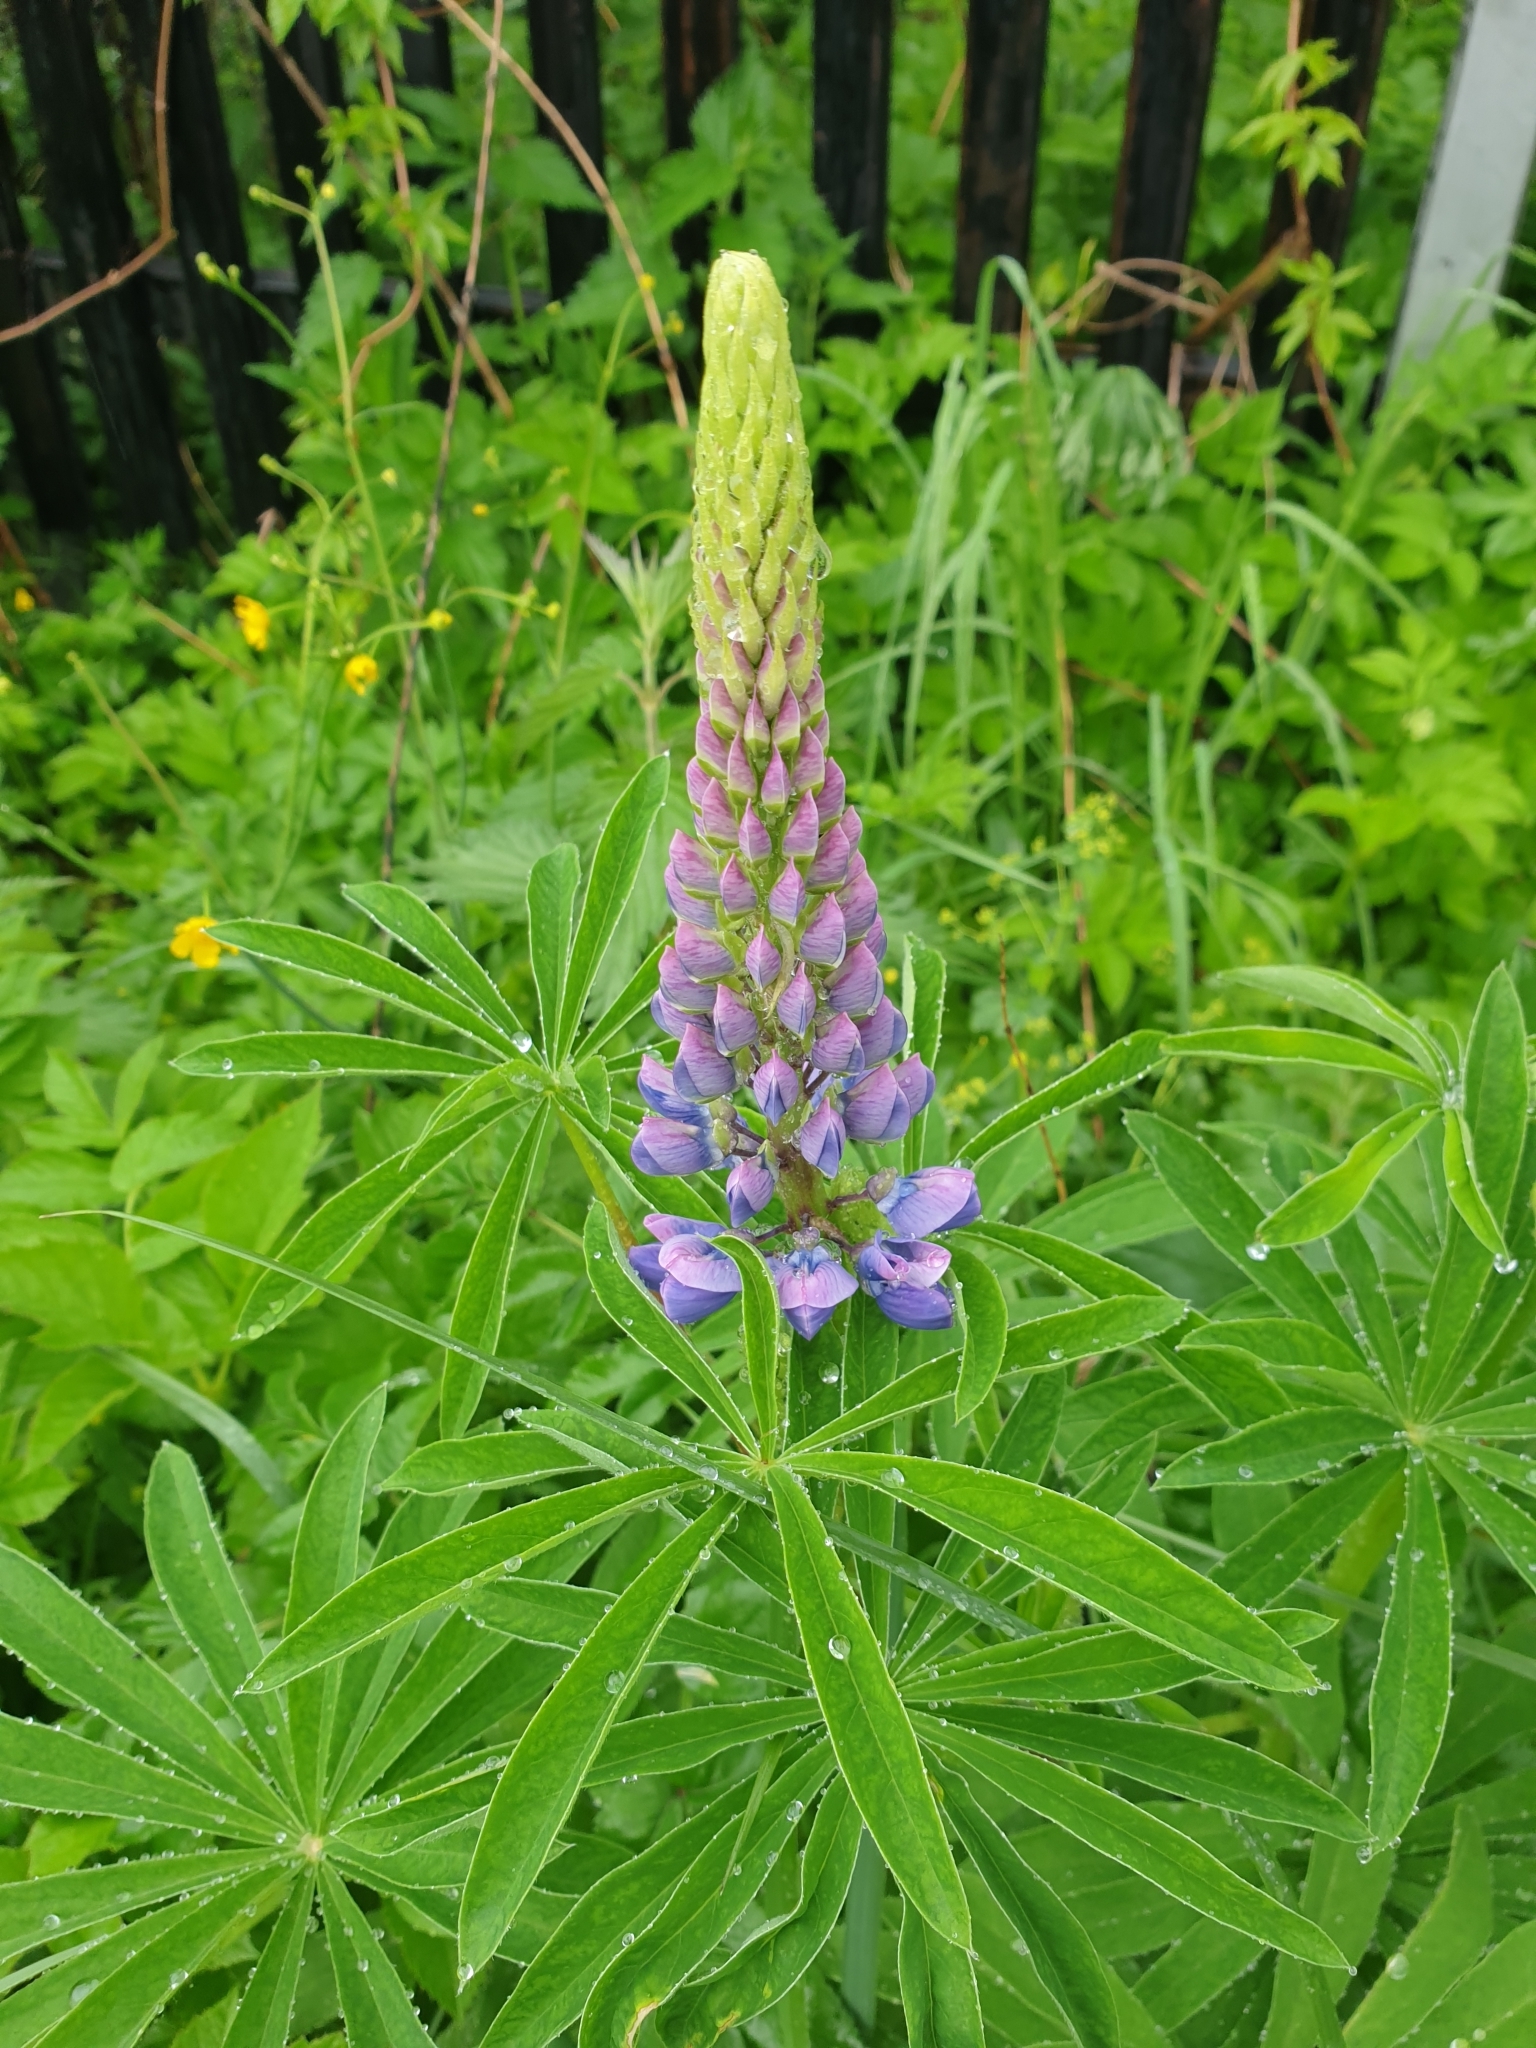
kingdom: Plantae
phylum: Tracheophyta
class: Magnoliopsida
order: Fabales
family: Fabaceae
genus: Lupinus
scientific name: Lupinus polyphyllus
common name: Garden lupin
